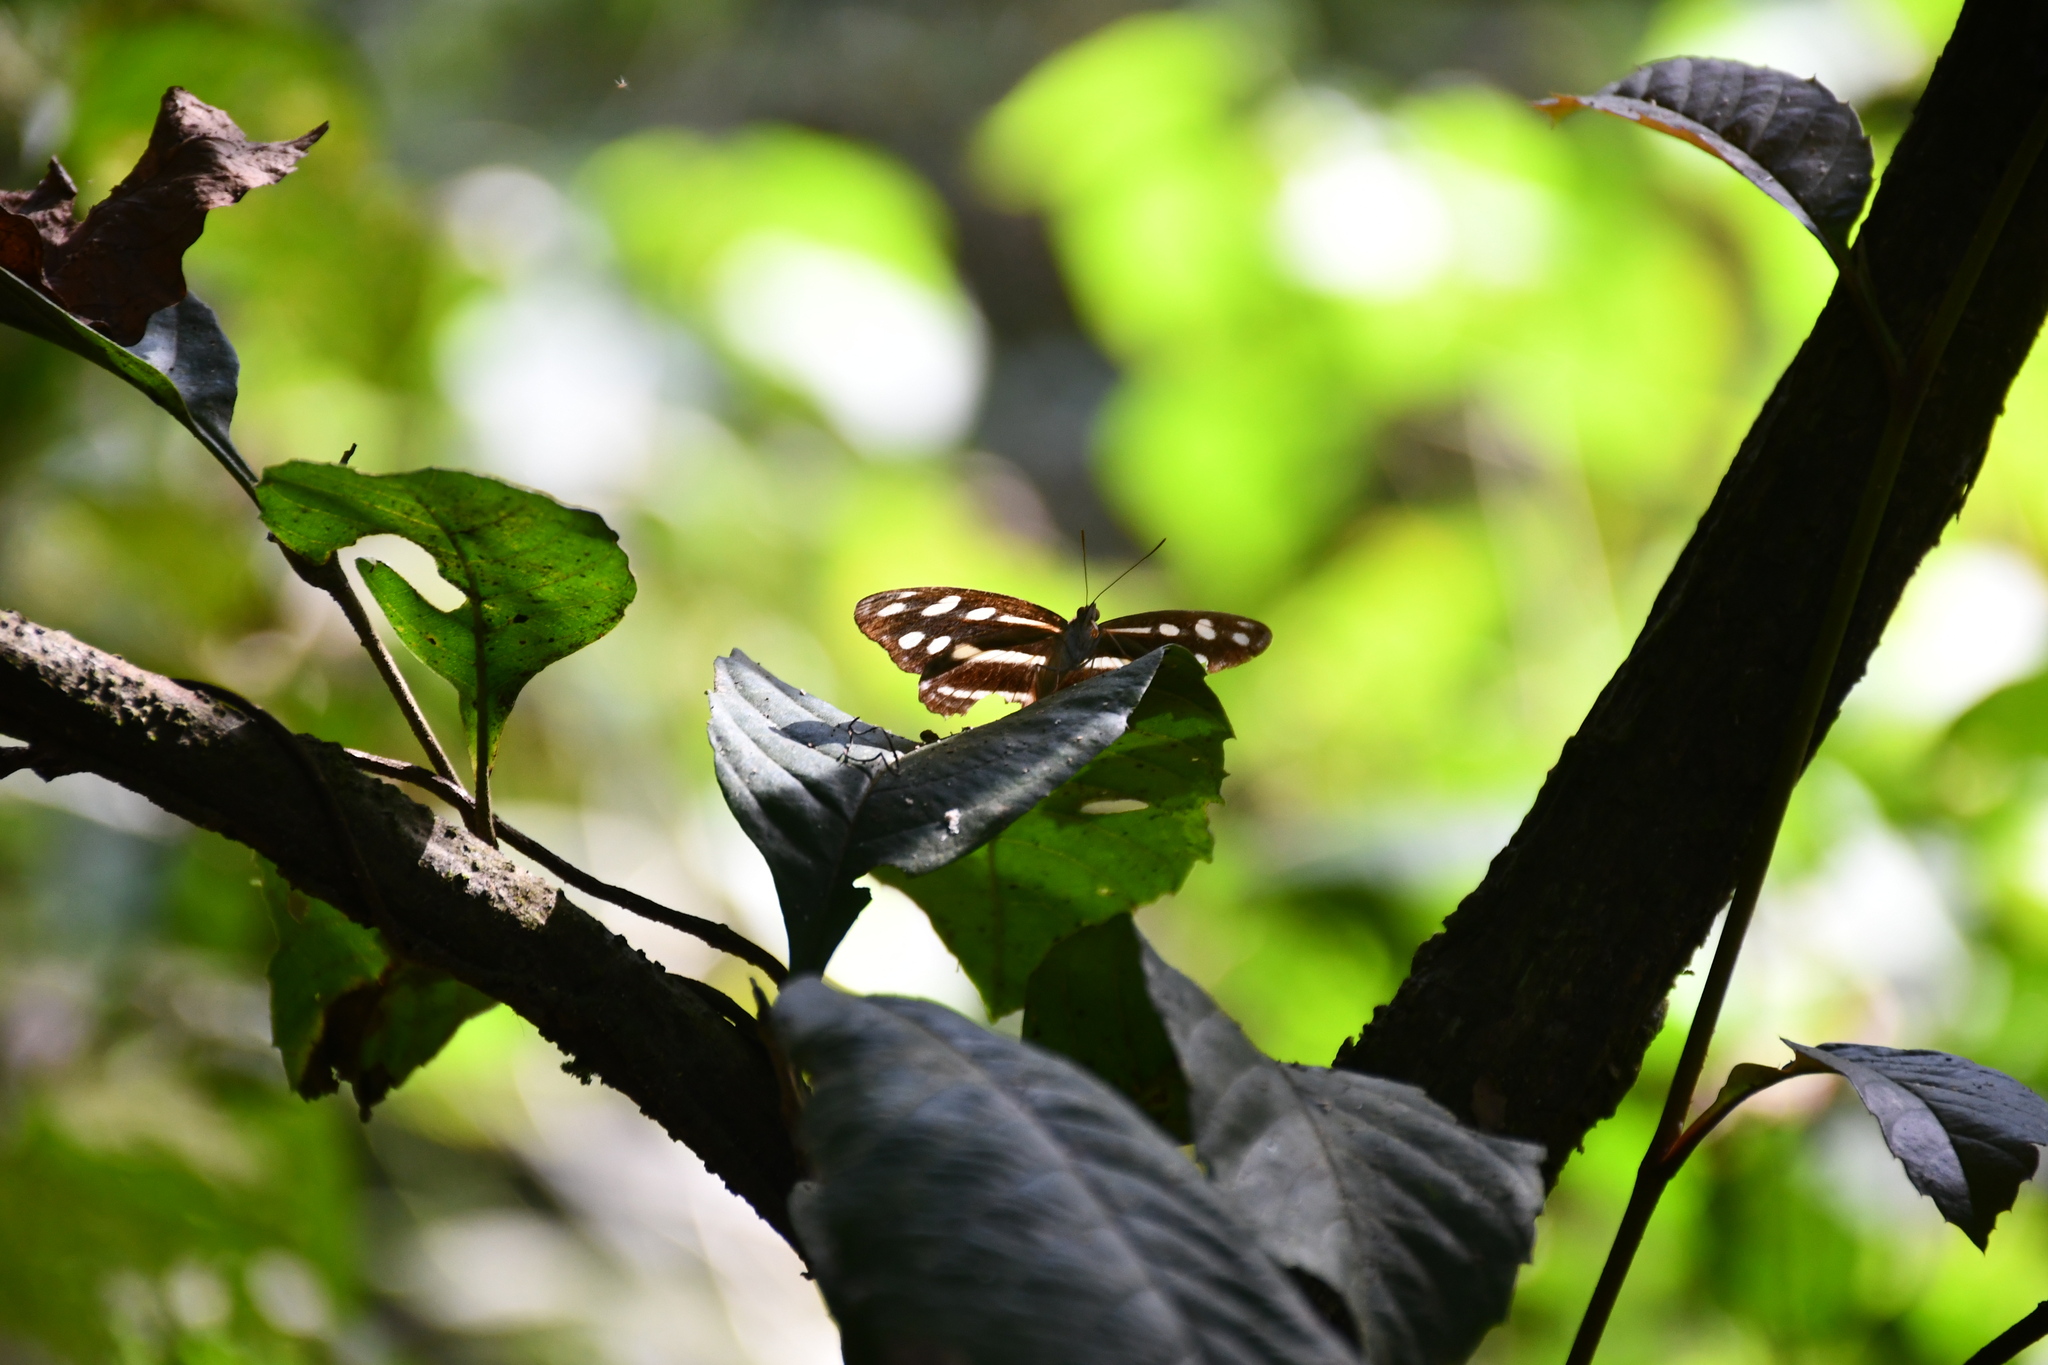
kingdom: Animalia
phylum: Arthropoda
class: Insecta
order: Lepidoptera
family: Nymphalidae
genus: Catonephele
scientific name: Catonephele salacia
